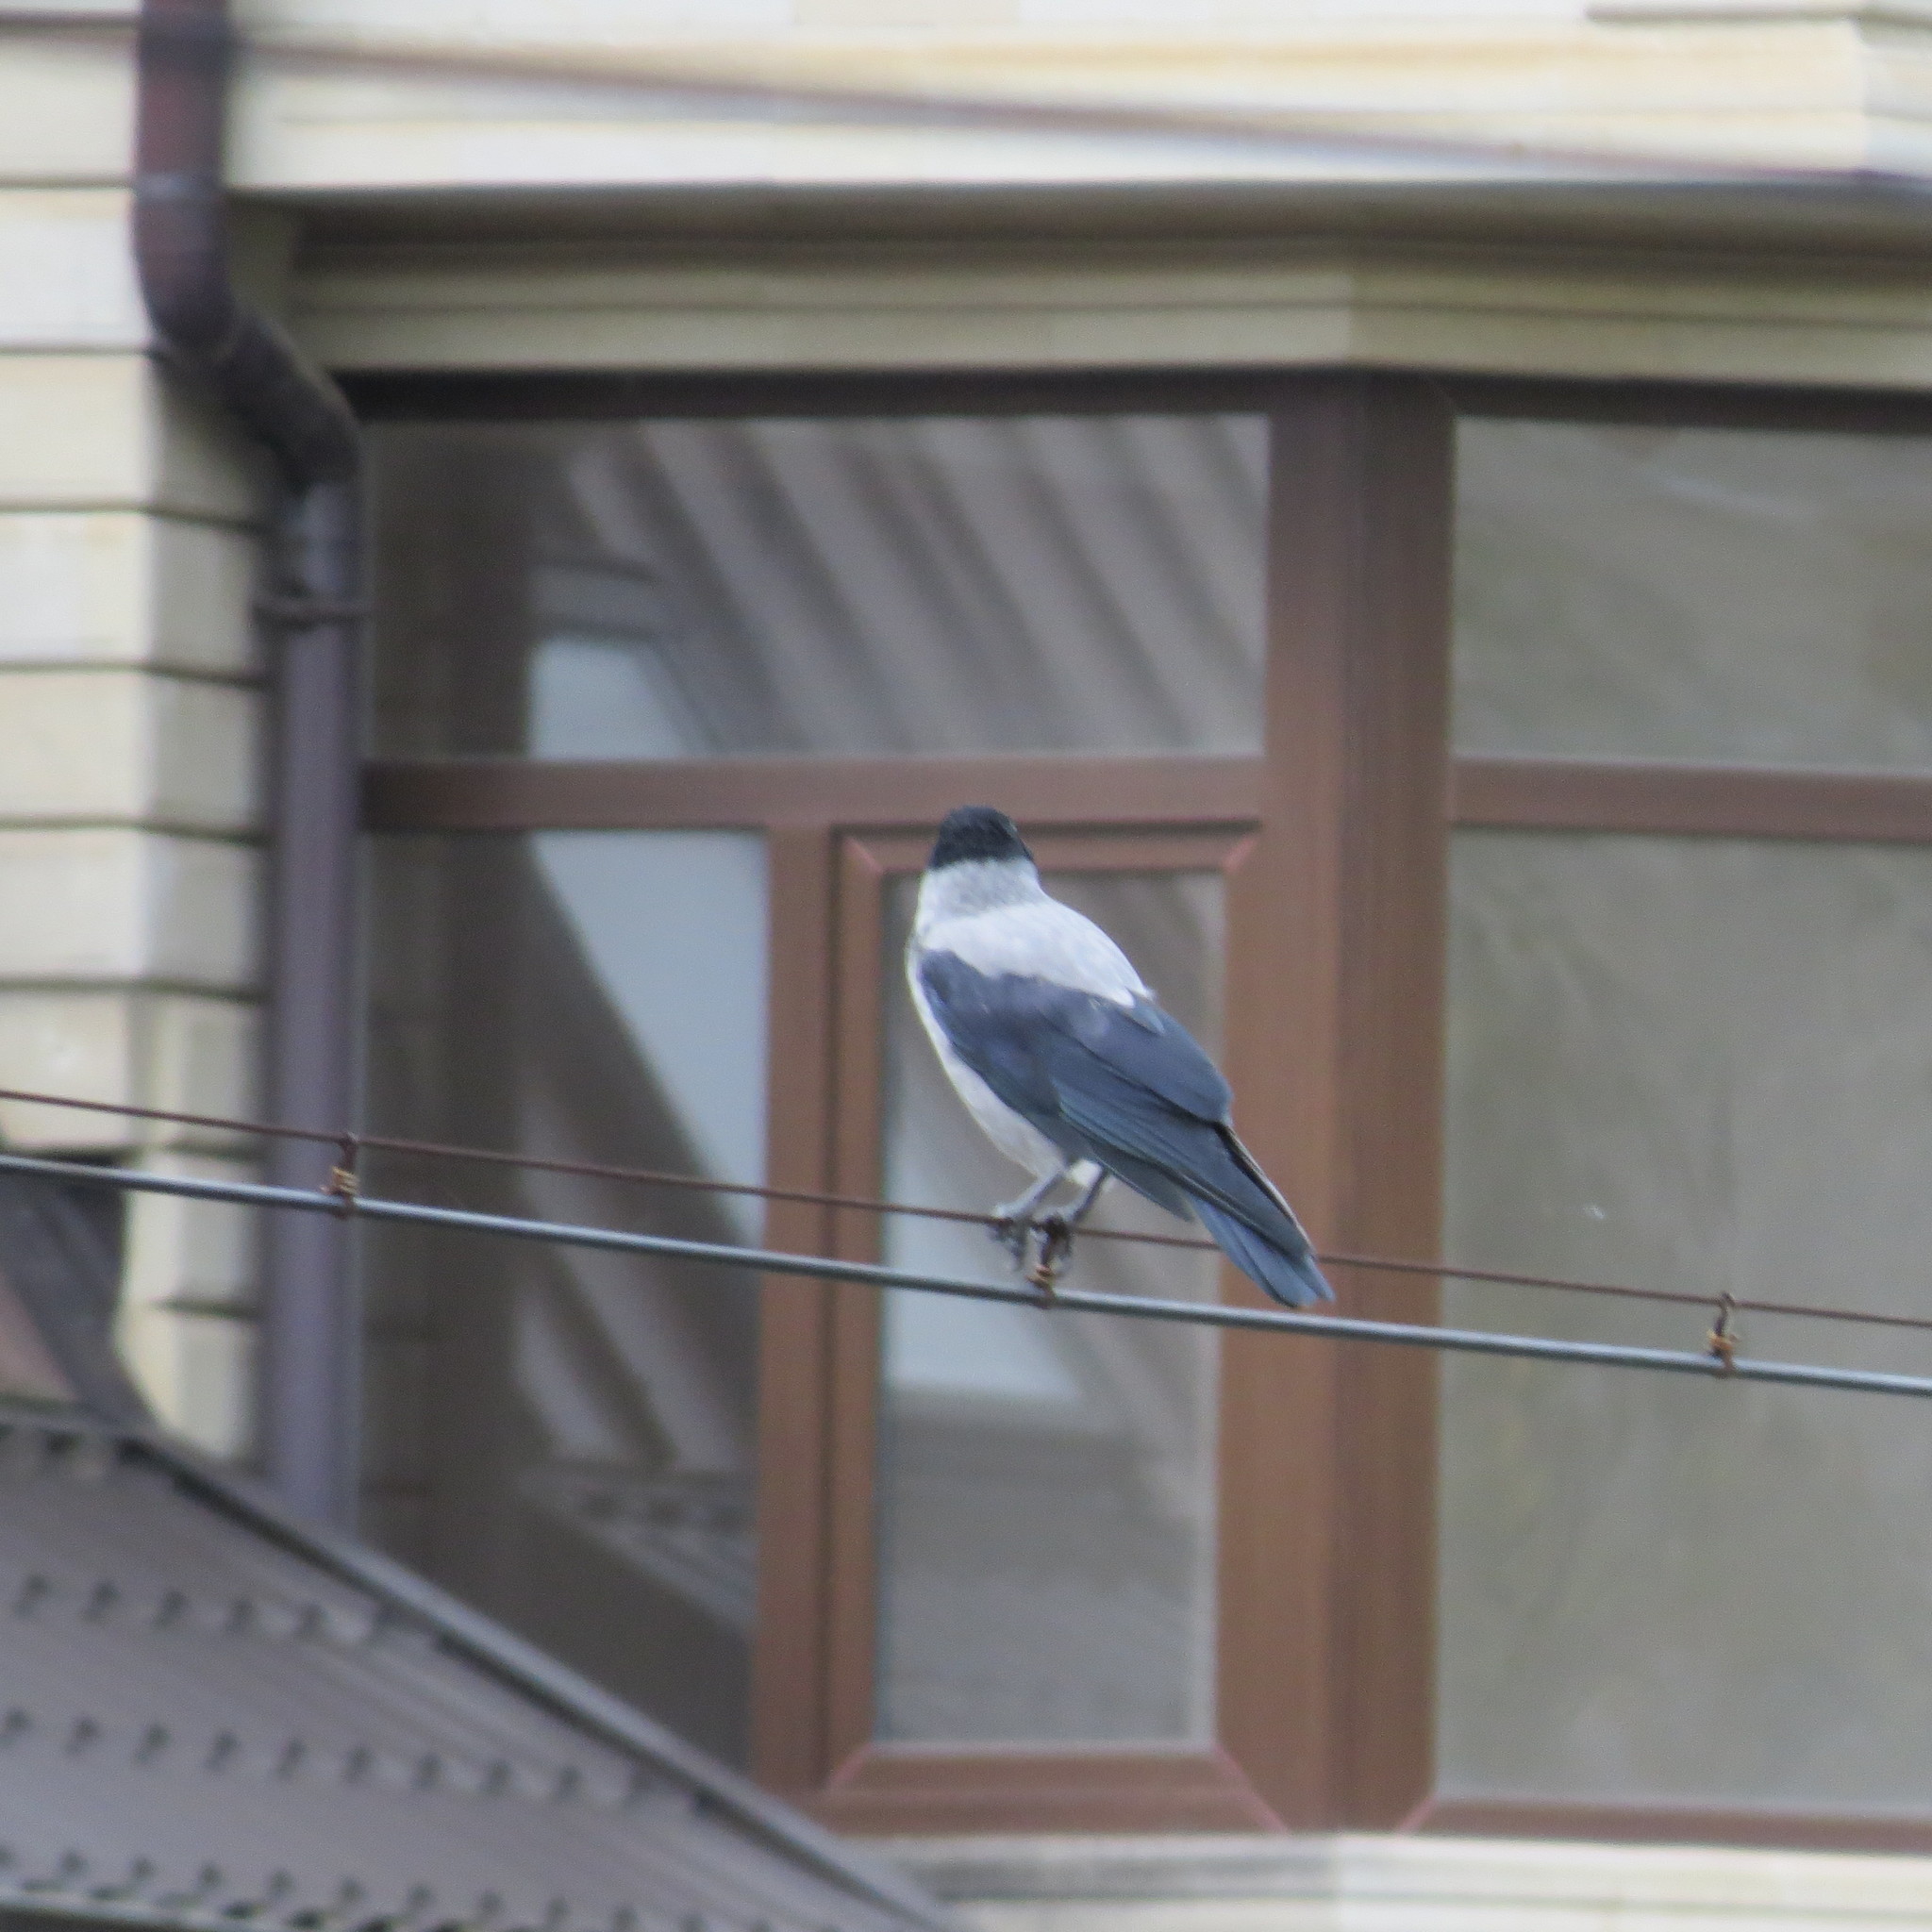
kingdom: Animalia
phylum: Chordata
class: Aves
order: Passeriformes
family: Corvidae
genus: Corvus
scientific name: Corvus cornix
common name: Hooded crow
